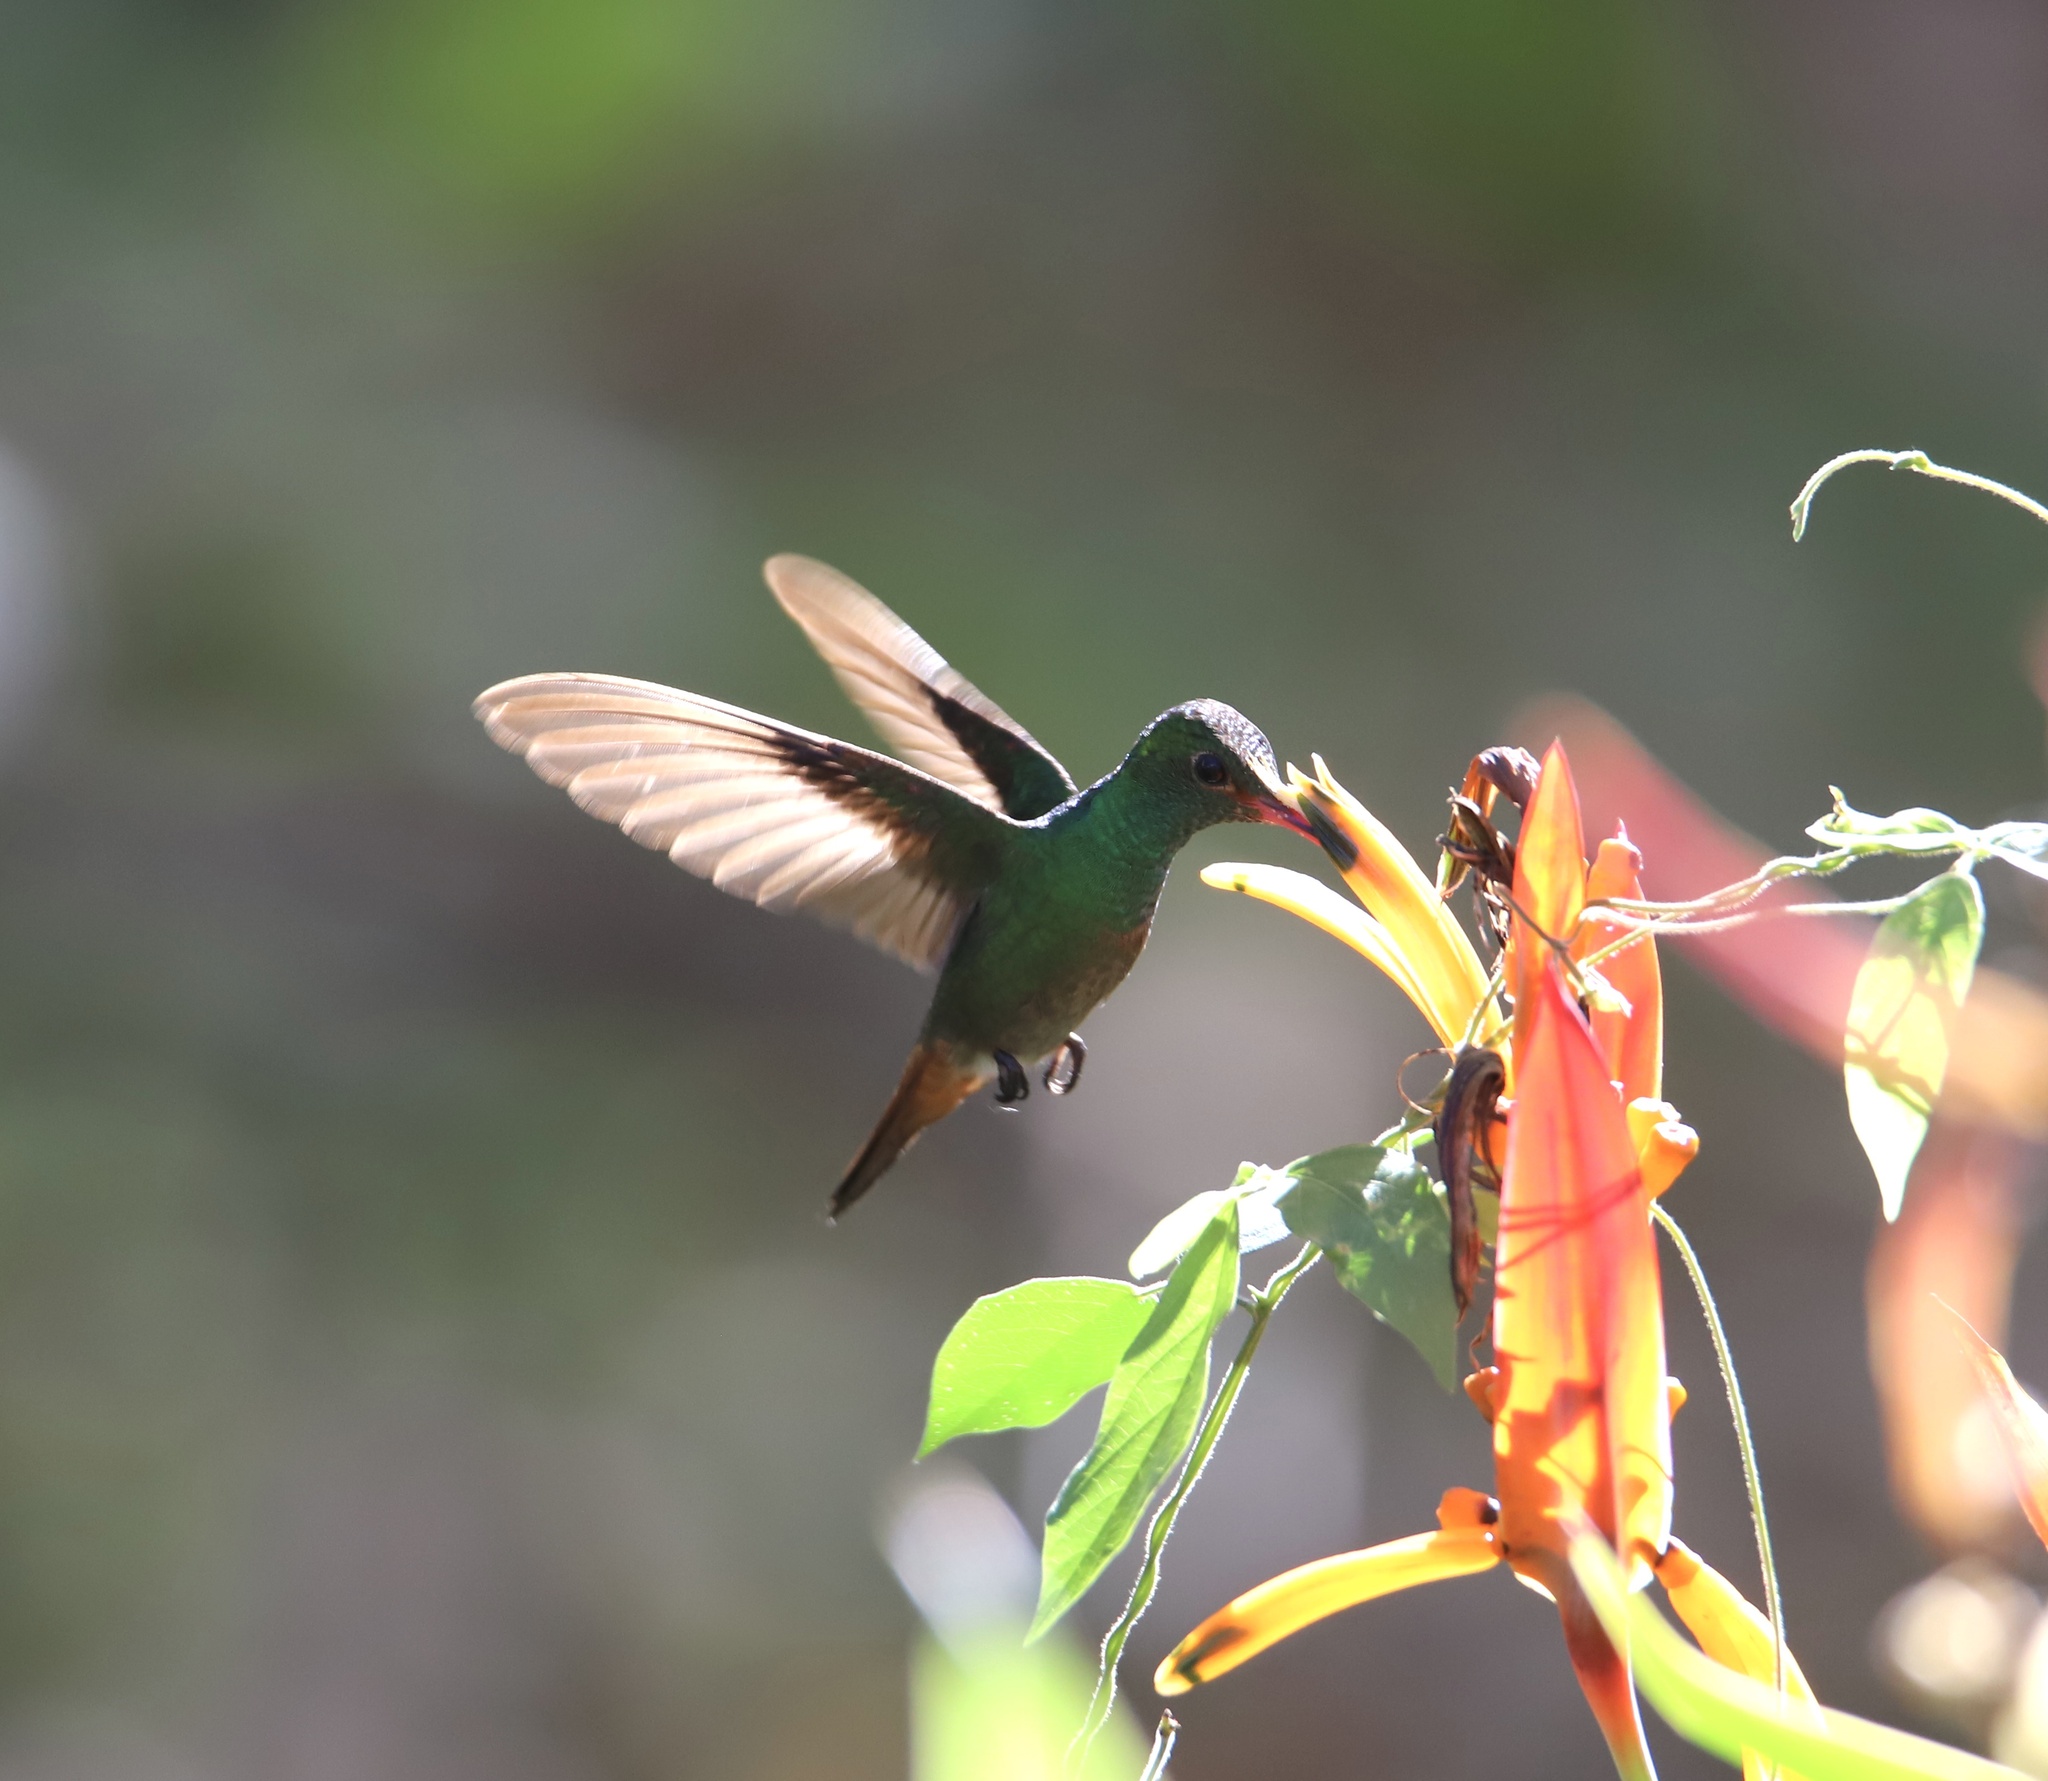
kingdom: Animalia
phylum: Chordata
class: Aves
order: Apodiformes
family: Trochilidae
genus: Amazilia
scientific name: Amazilia tzacatl
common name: Rufous-tailed hummingbird
